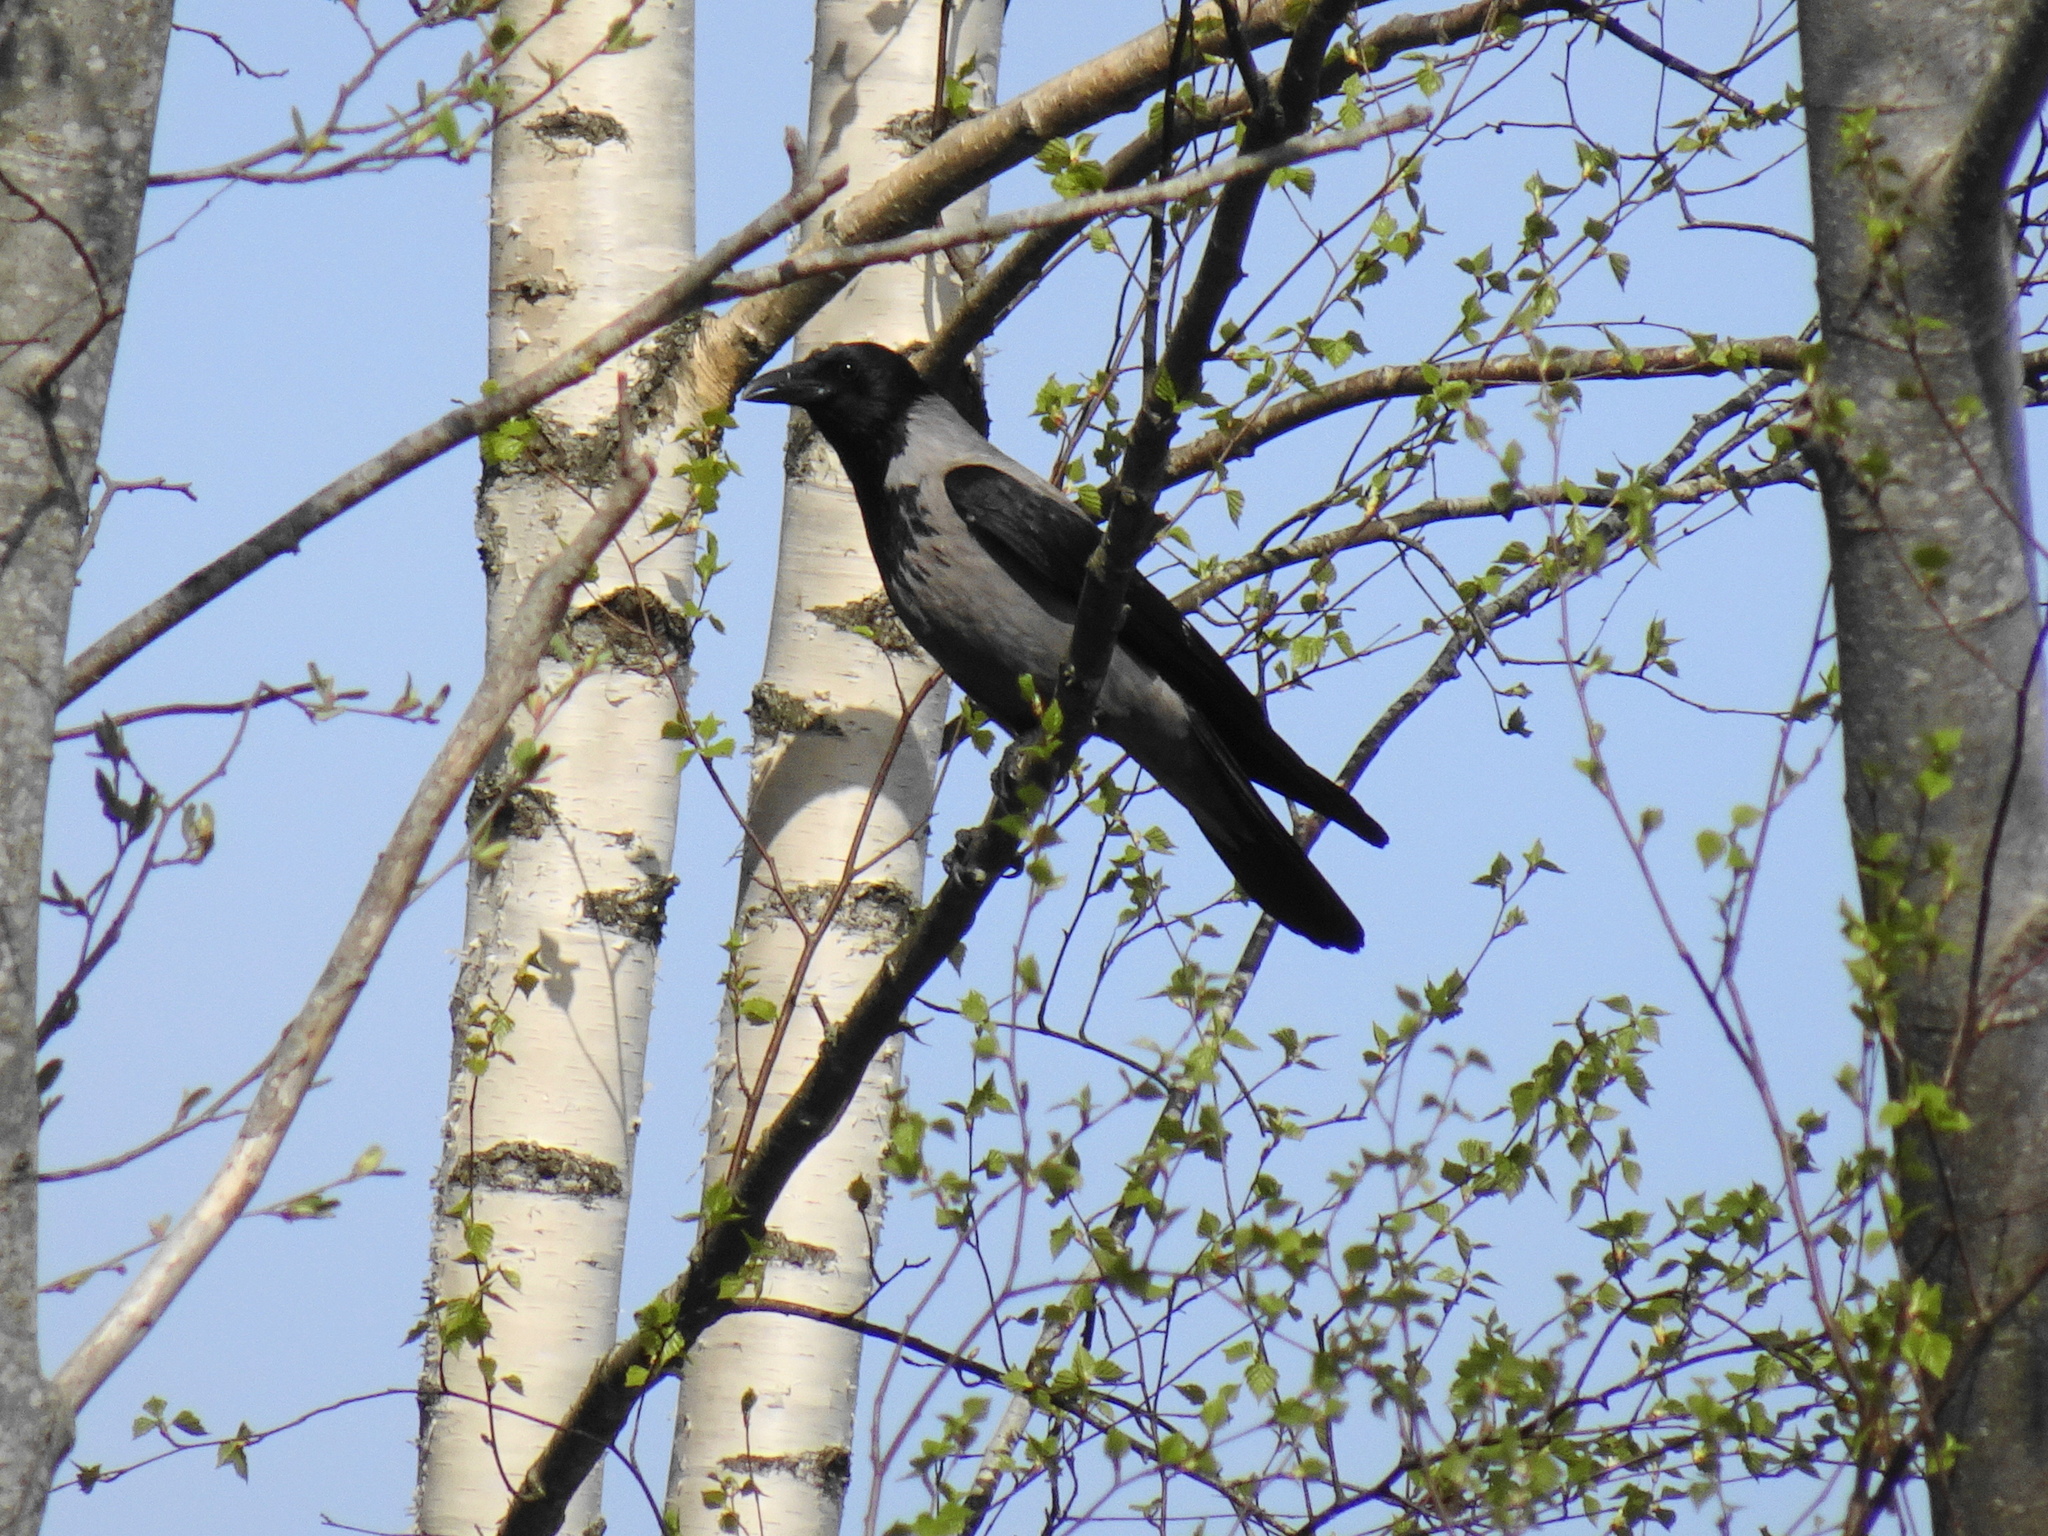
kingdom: Animalia
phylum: Chordata
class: Aves
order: Passeriformes
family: Corvidae
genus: Corvus
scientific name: Corvus cornix
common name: Hooded crow
